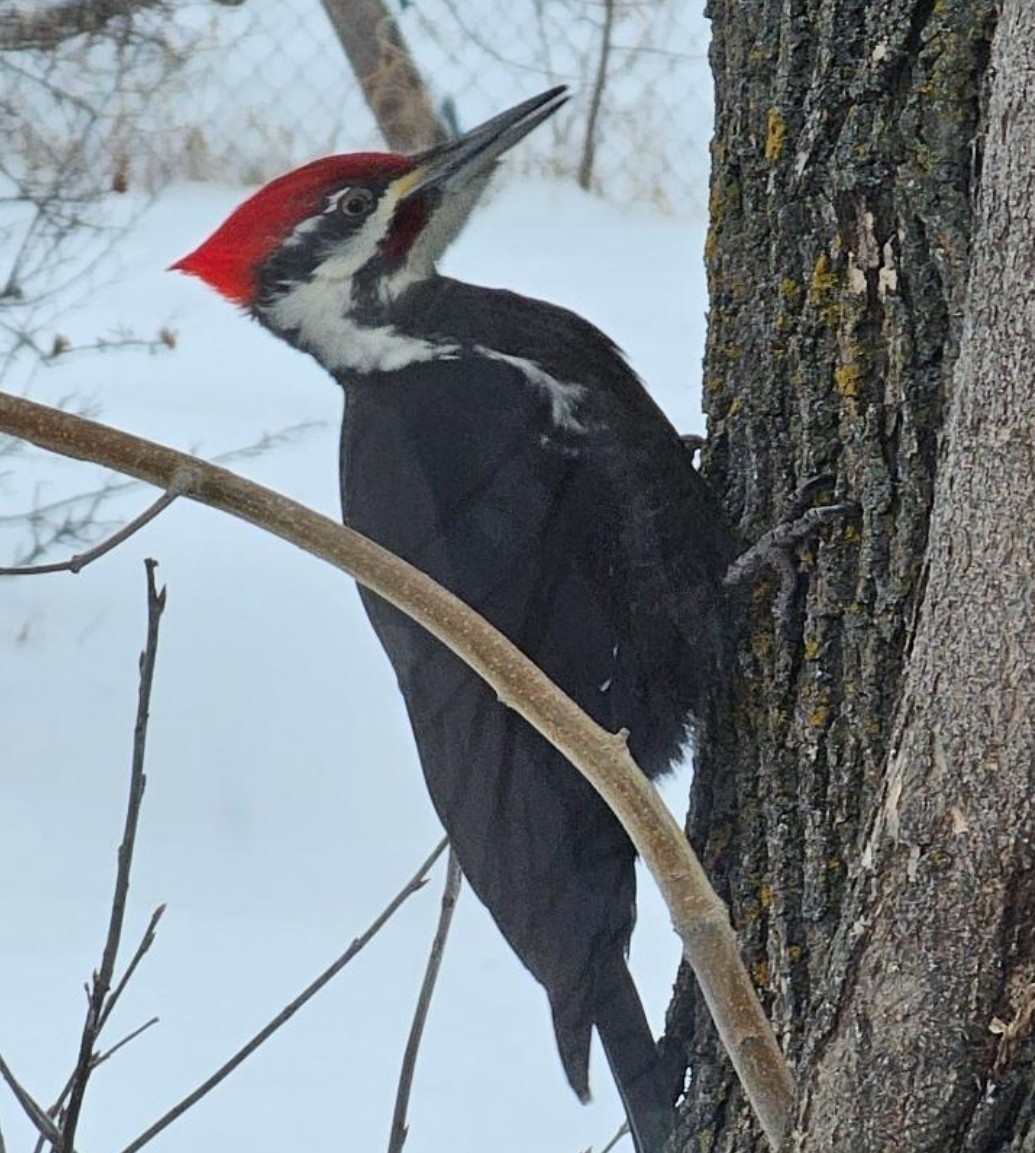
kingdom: Animalia
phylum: Chordata
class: Aves
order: Piciformes
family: Picidae
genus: Dryocopus
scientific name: Dryocopus pileatus
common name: Pileated woodpecker
